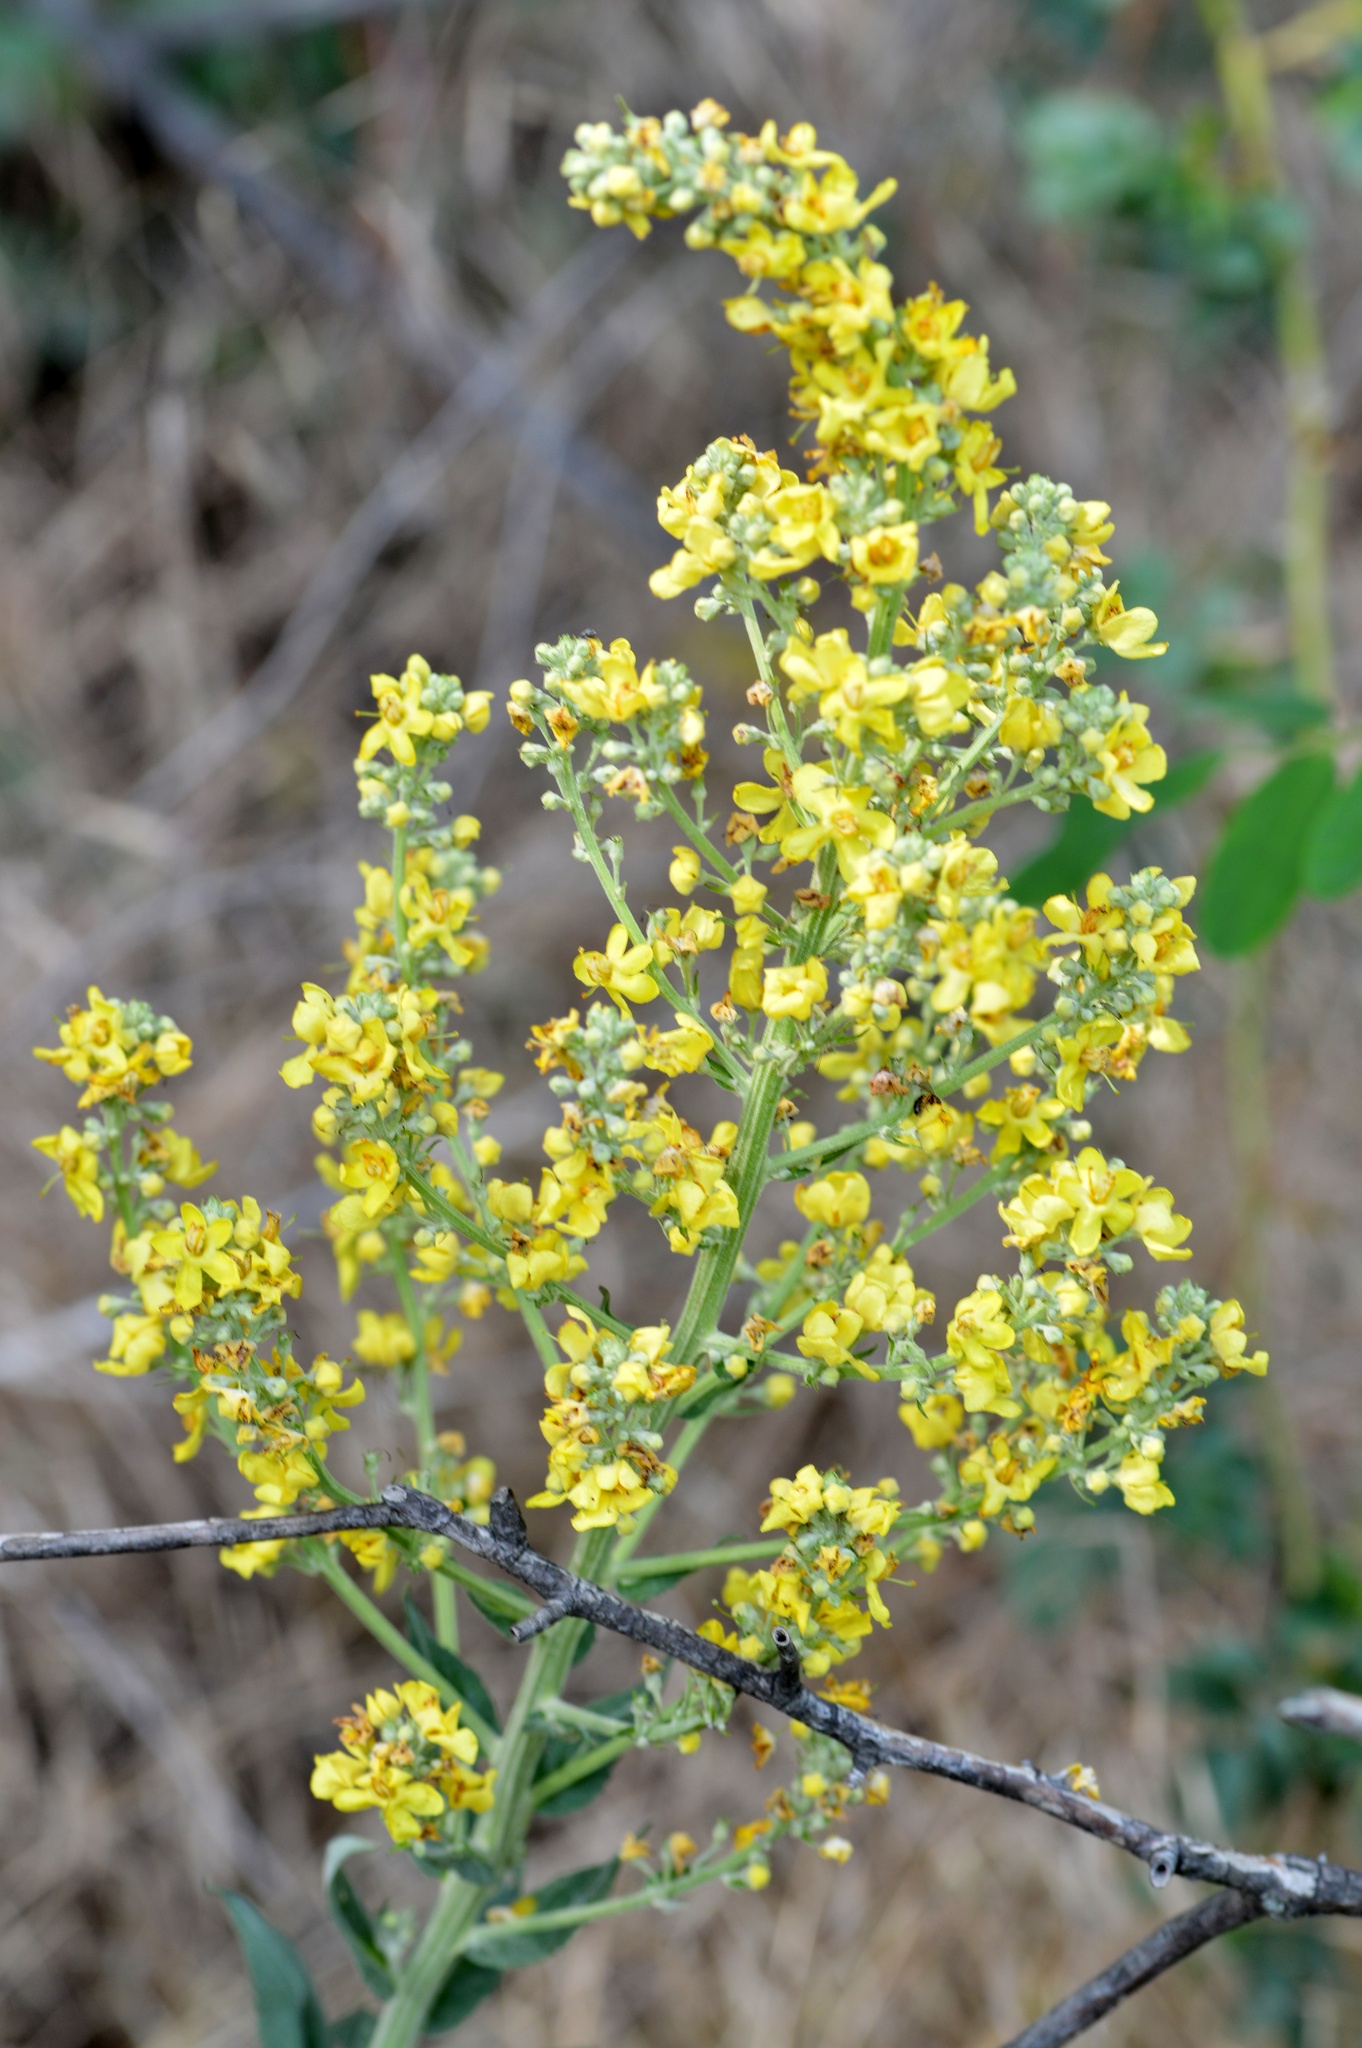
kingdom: Plantae
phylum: Tracheophyta
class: Magnoliopsida
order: Lamiales
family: Scrophulariaceae
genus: Verbascum
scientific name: Verbascum lychnitis
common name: White mullein
